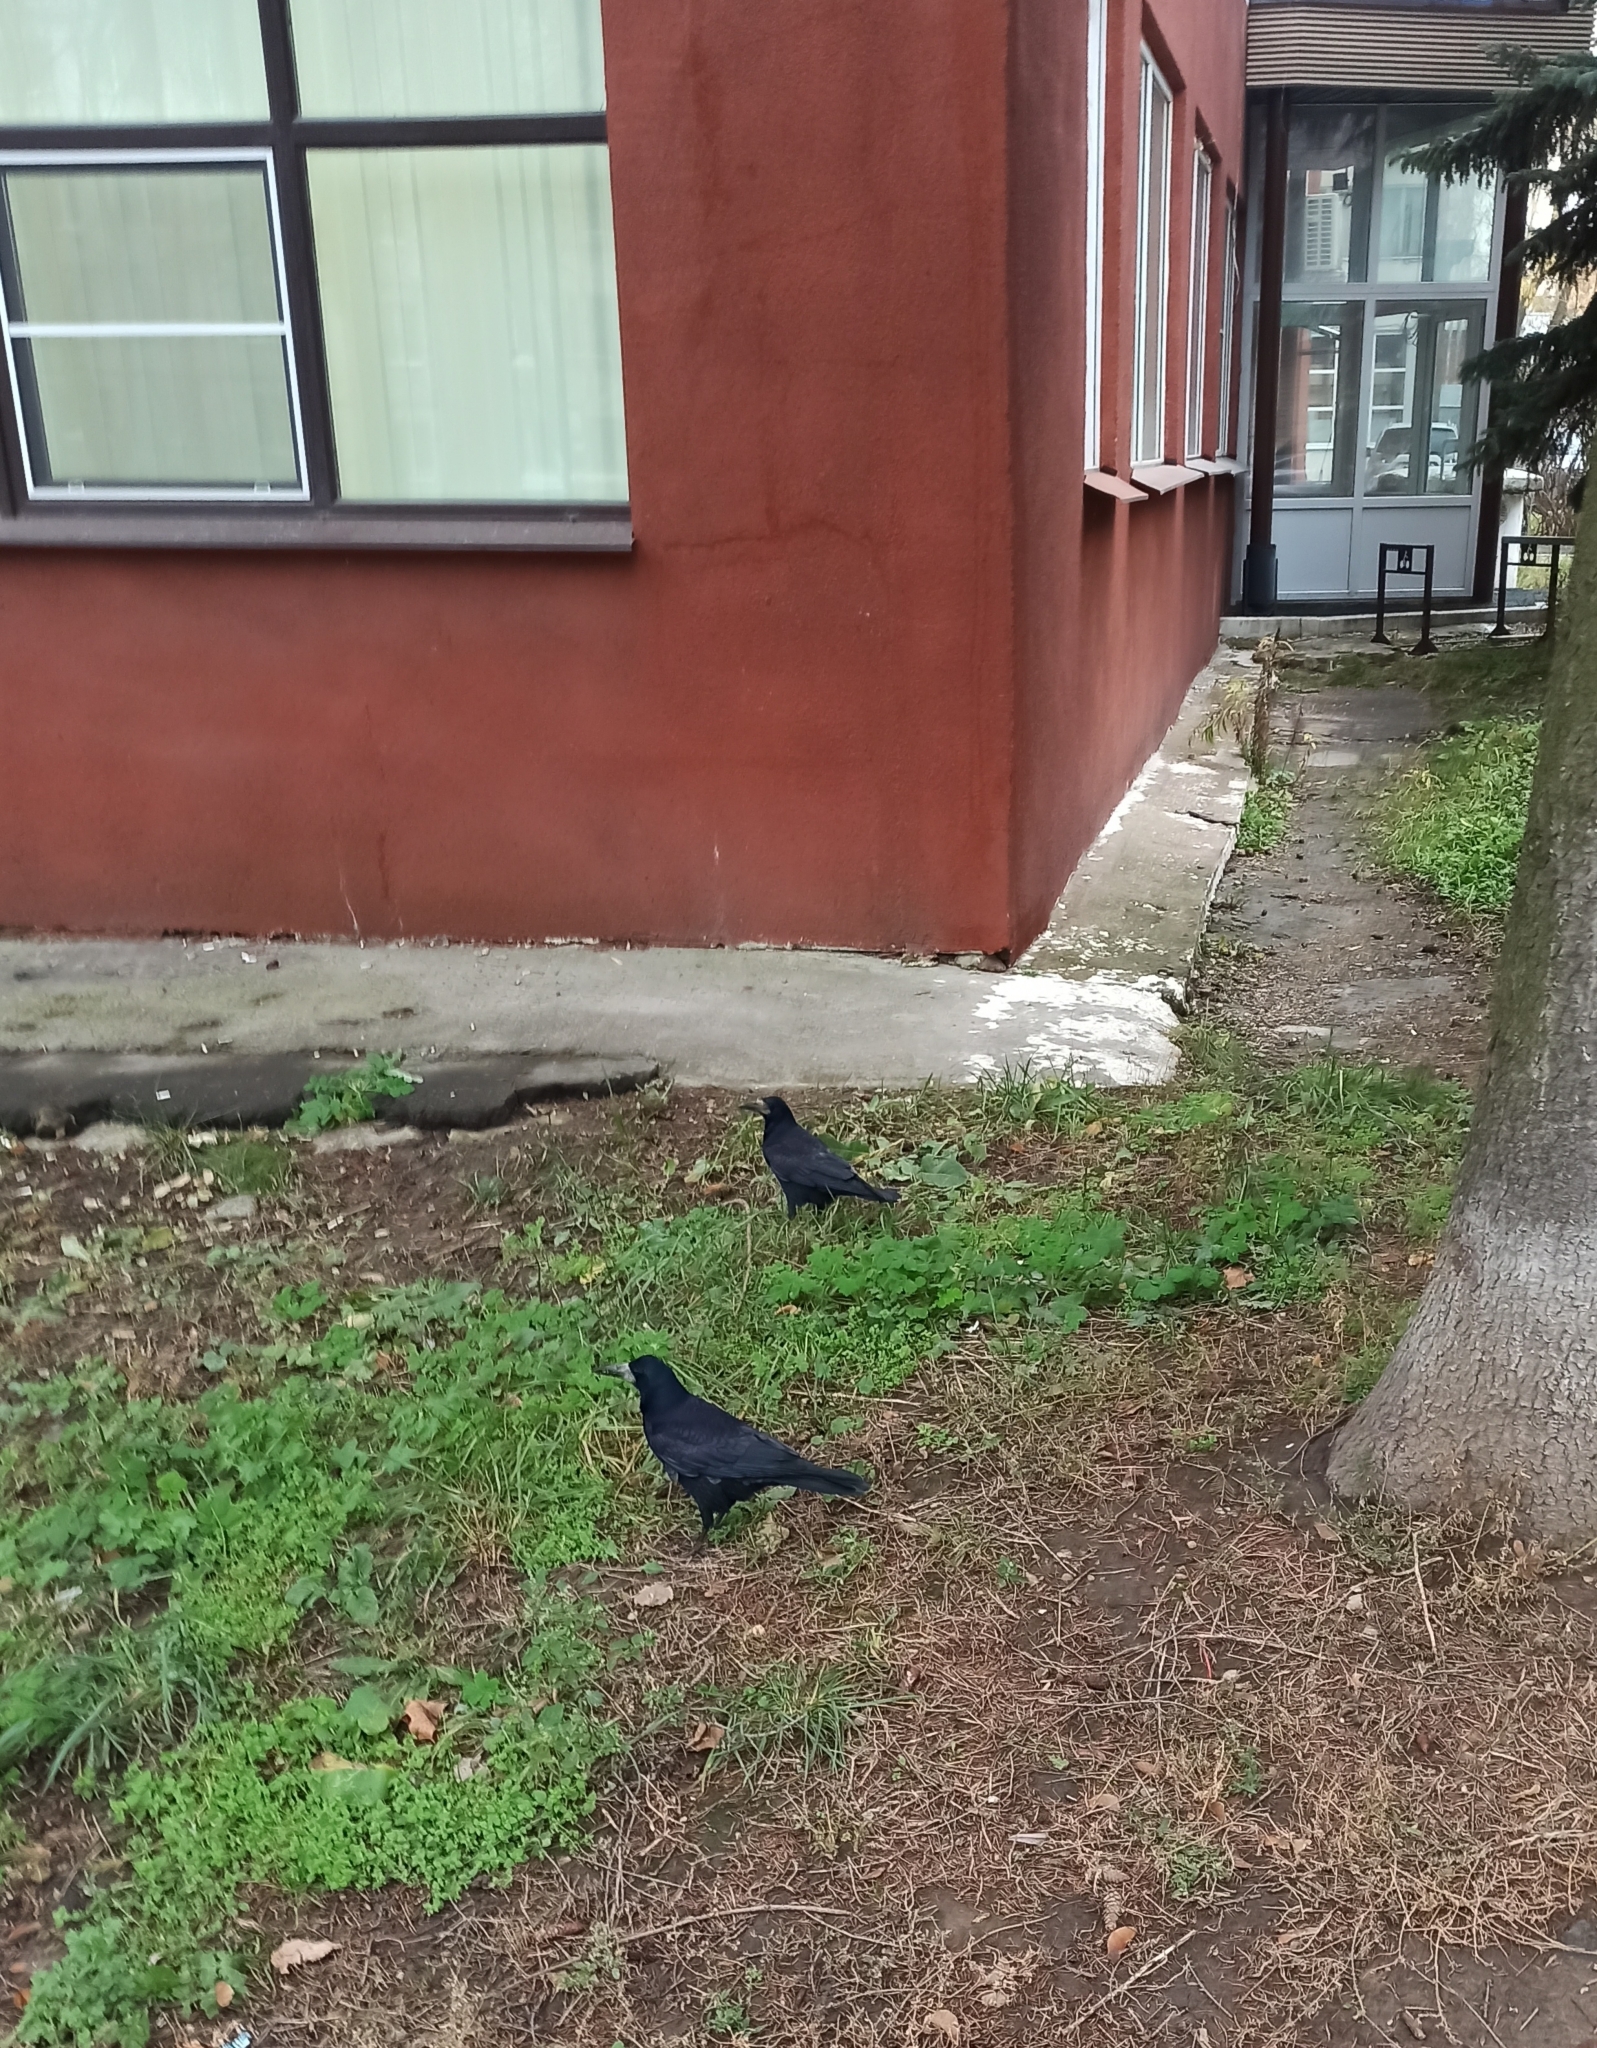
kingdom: Animalia
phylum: Chordata
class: Aves
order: Passeriformes
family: Corvidae
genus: Corvus
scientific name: Corvus frugilegus
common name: Rook
